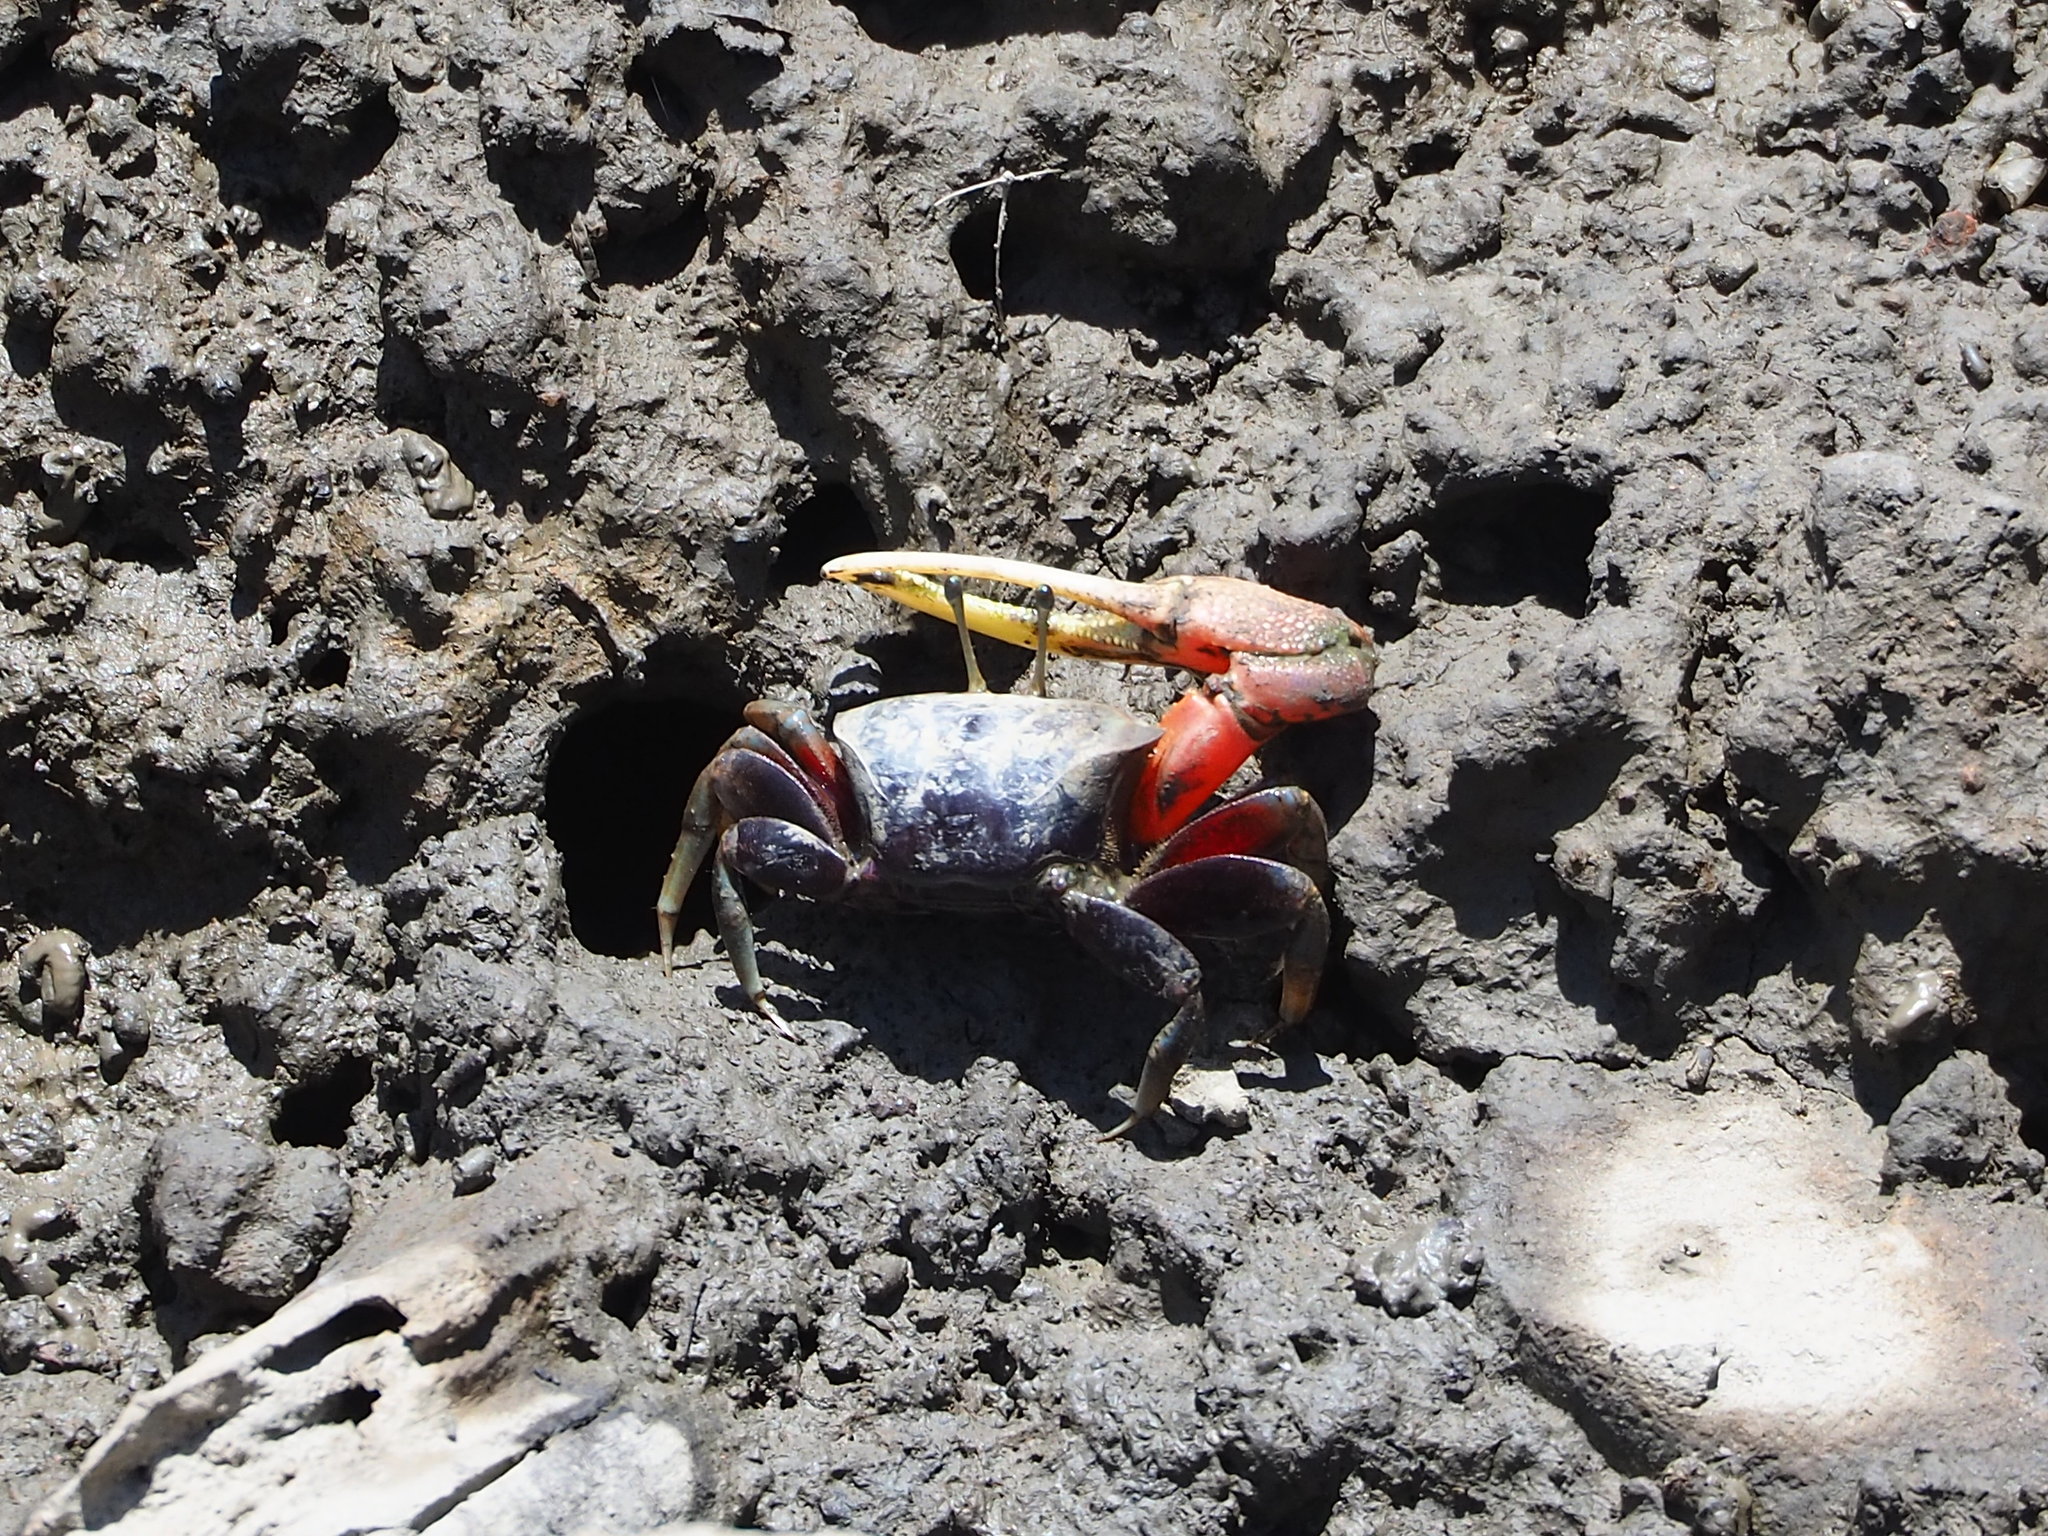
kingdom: Animalia
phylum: Arthropoda
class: Malacostraca
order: Decapoda
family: Ocypodidae
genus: Tubuca
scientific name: Tubuca arcuata
